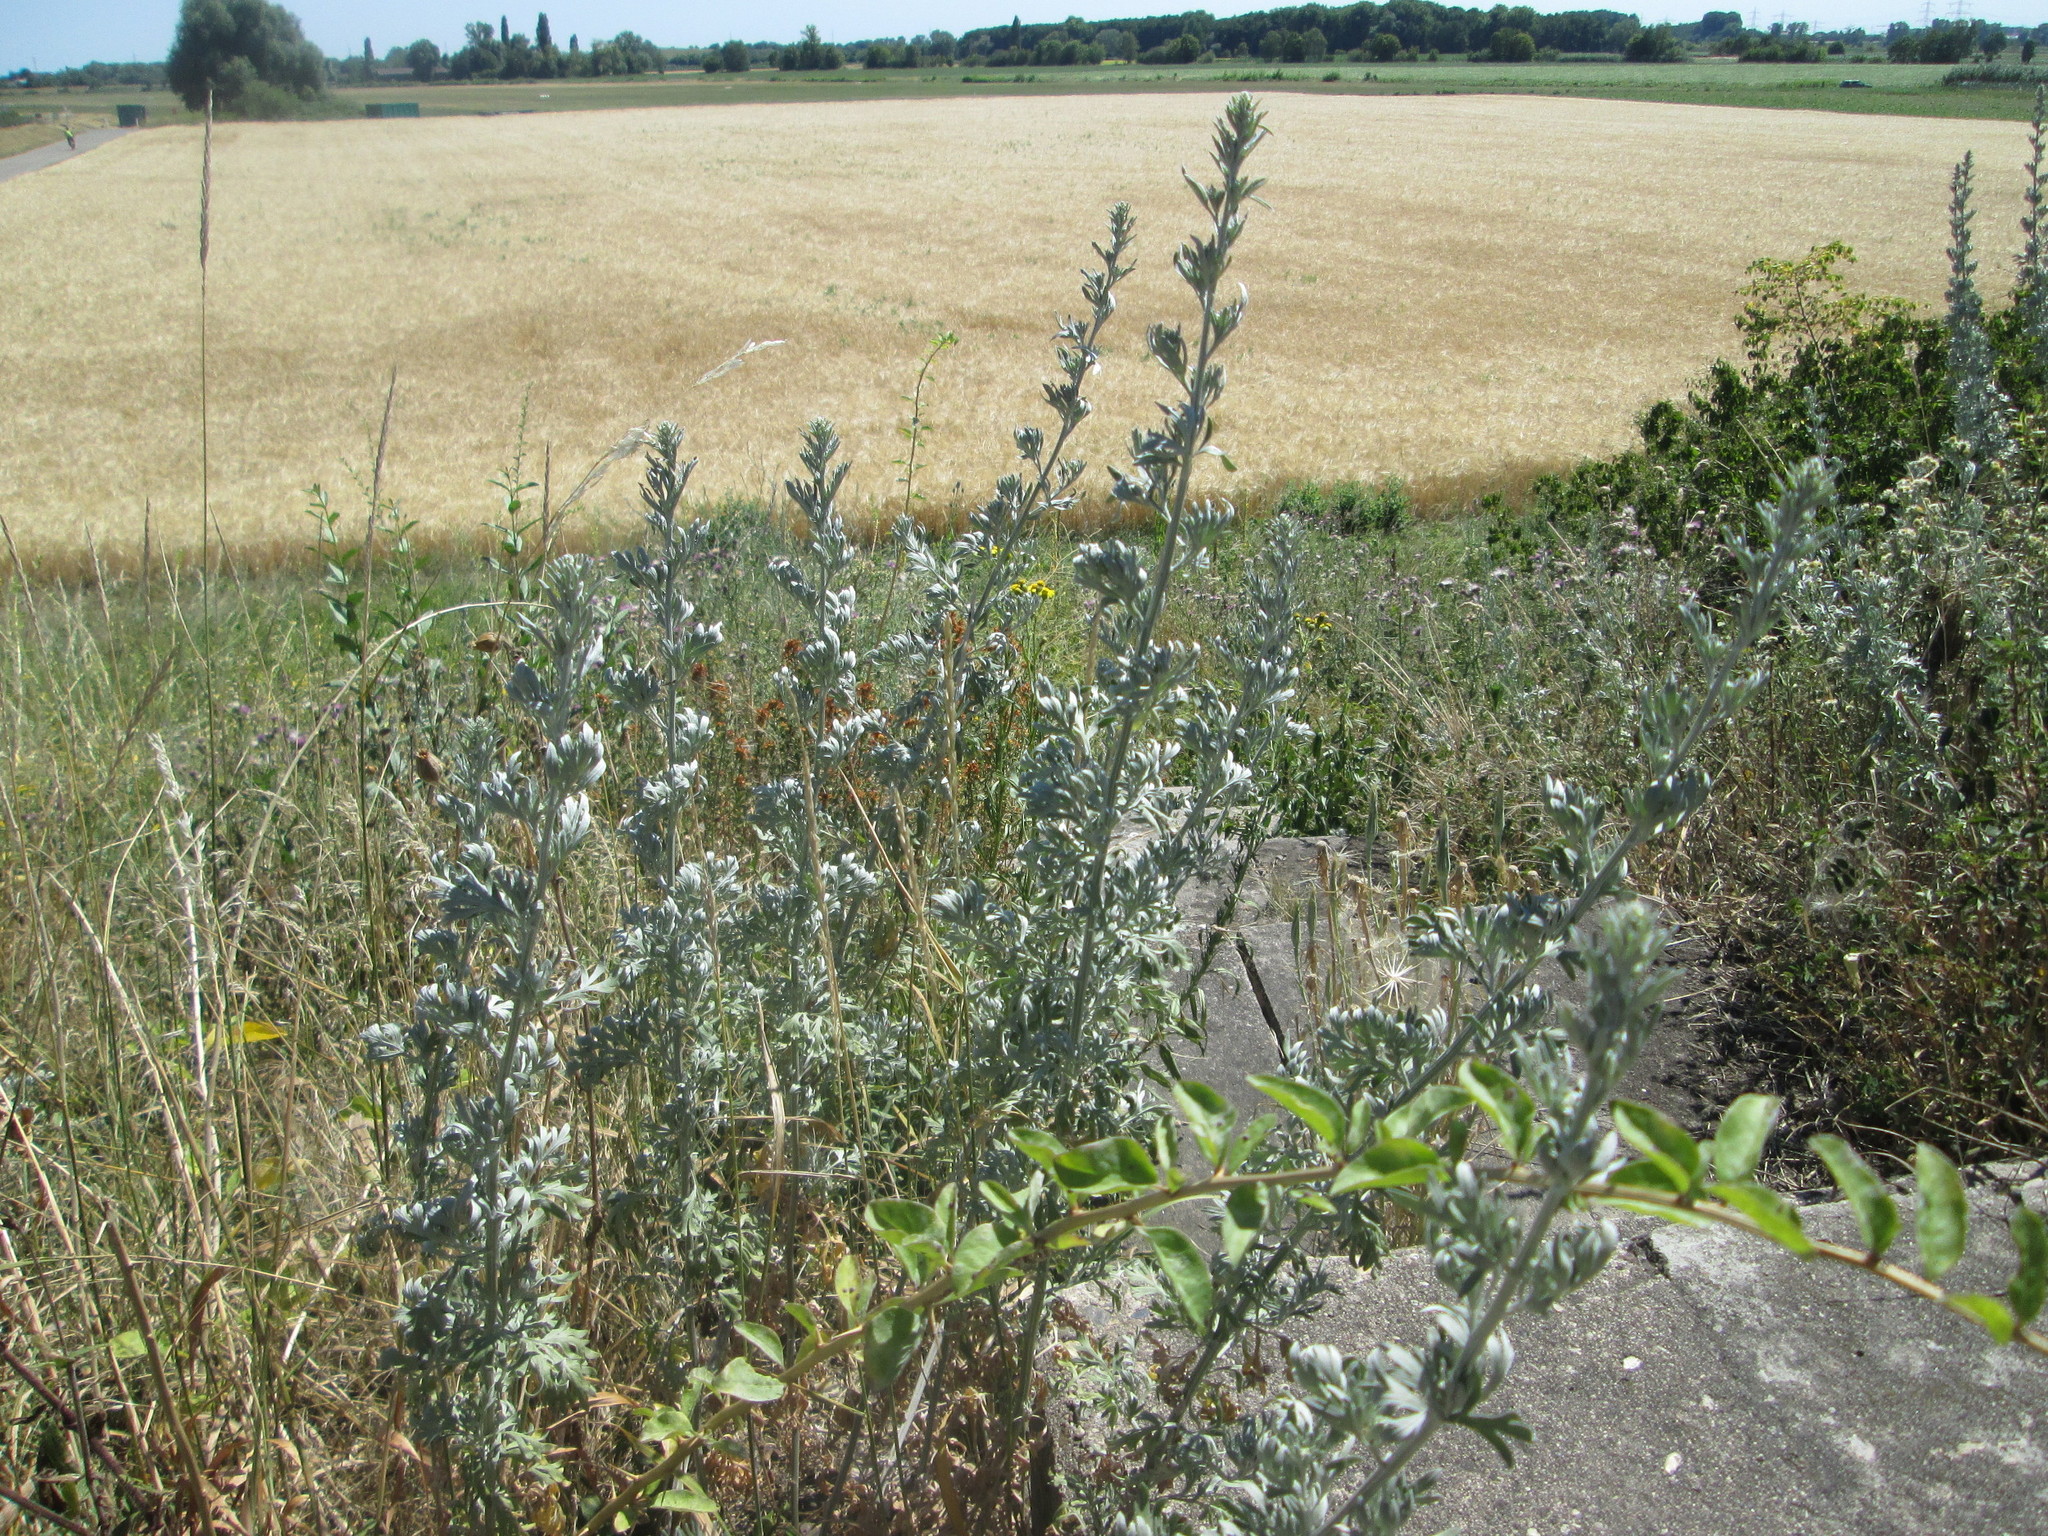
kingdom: Plantae
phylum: Tracheophyta
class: Magnoliopsida
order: Asterales
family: Asteraceae
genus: Artemisia
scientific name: Artemisia absinthium
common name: Wormwood
